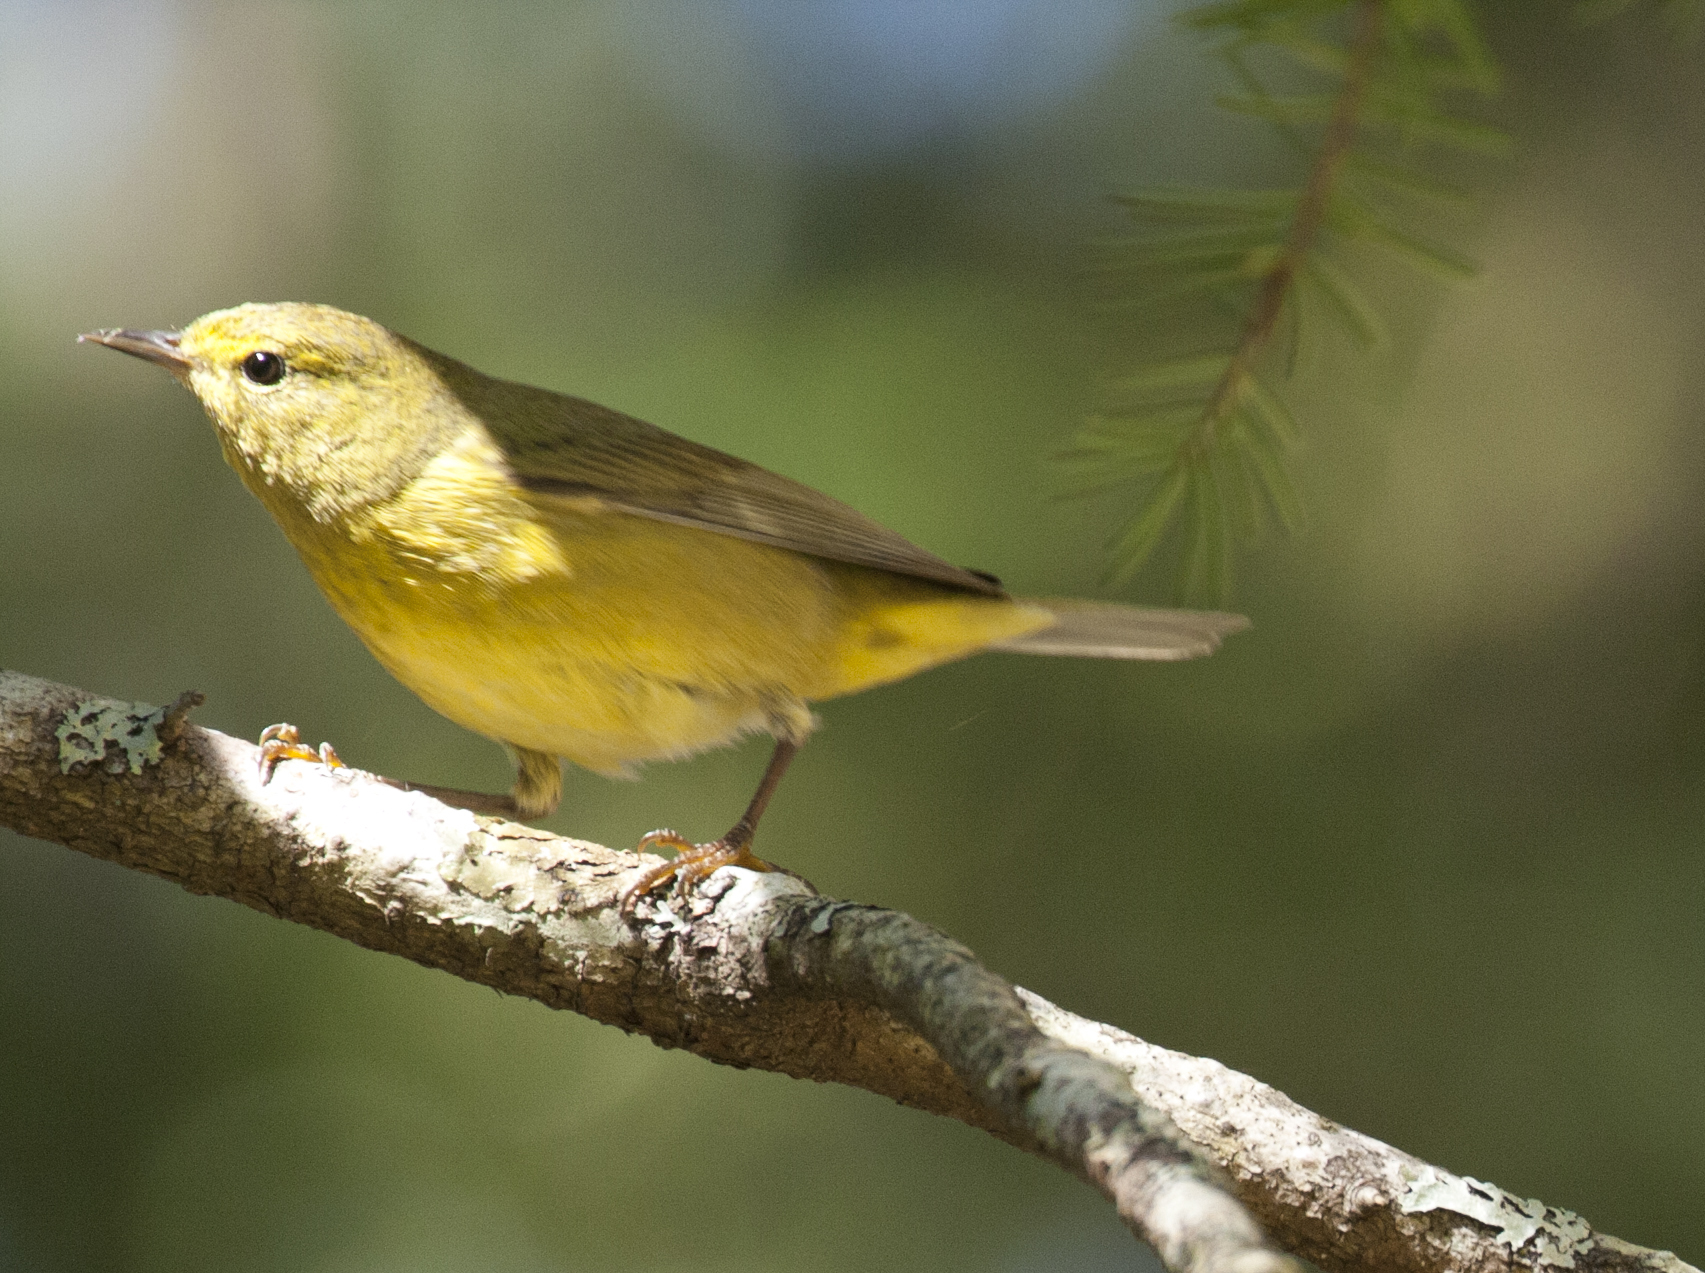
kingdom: Animalia
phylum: Chordata
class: Aves
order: Passeriformes
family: Parulidae
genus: Leiothlypis
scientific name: Leiothlypis celata
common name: Orange-crowned warbler
